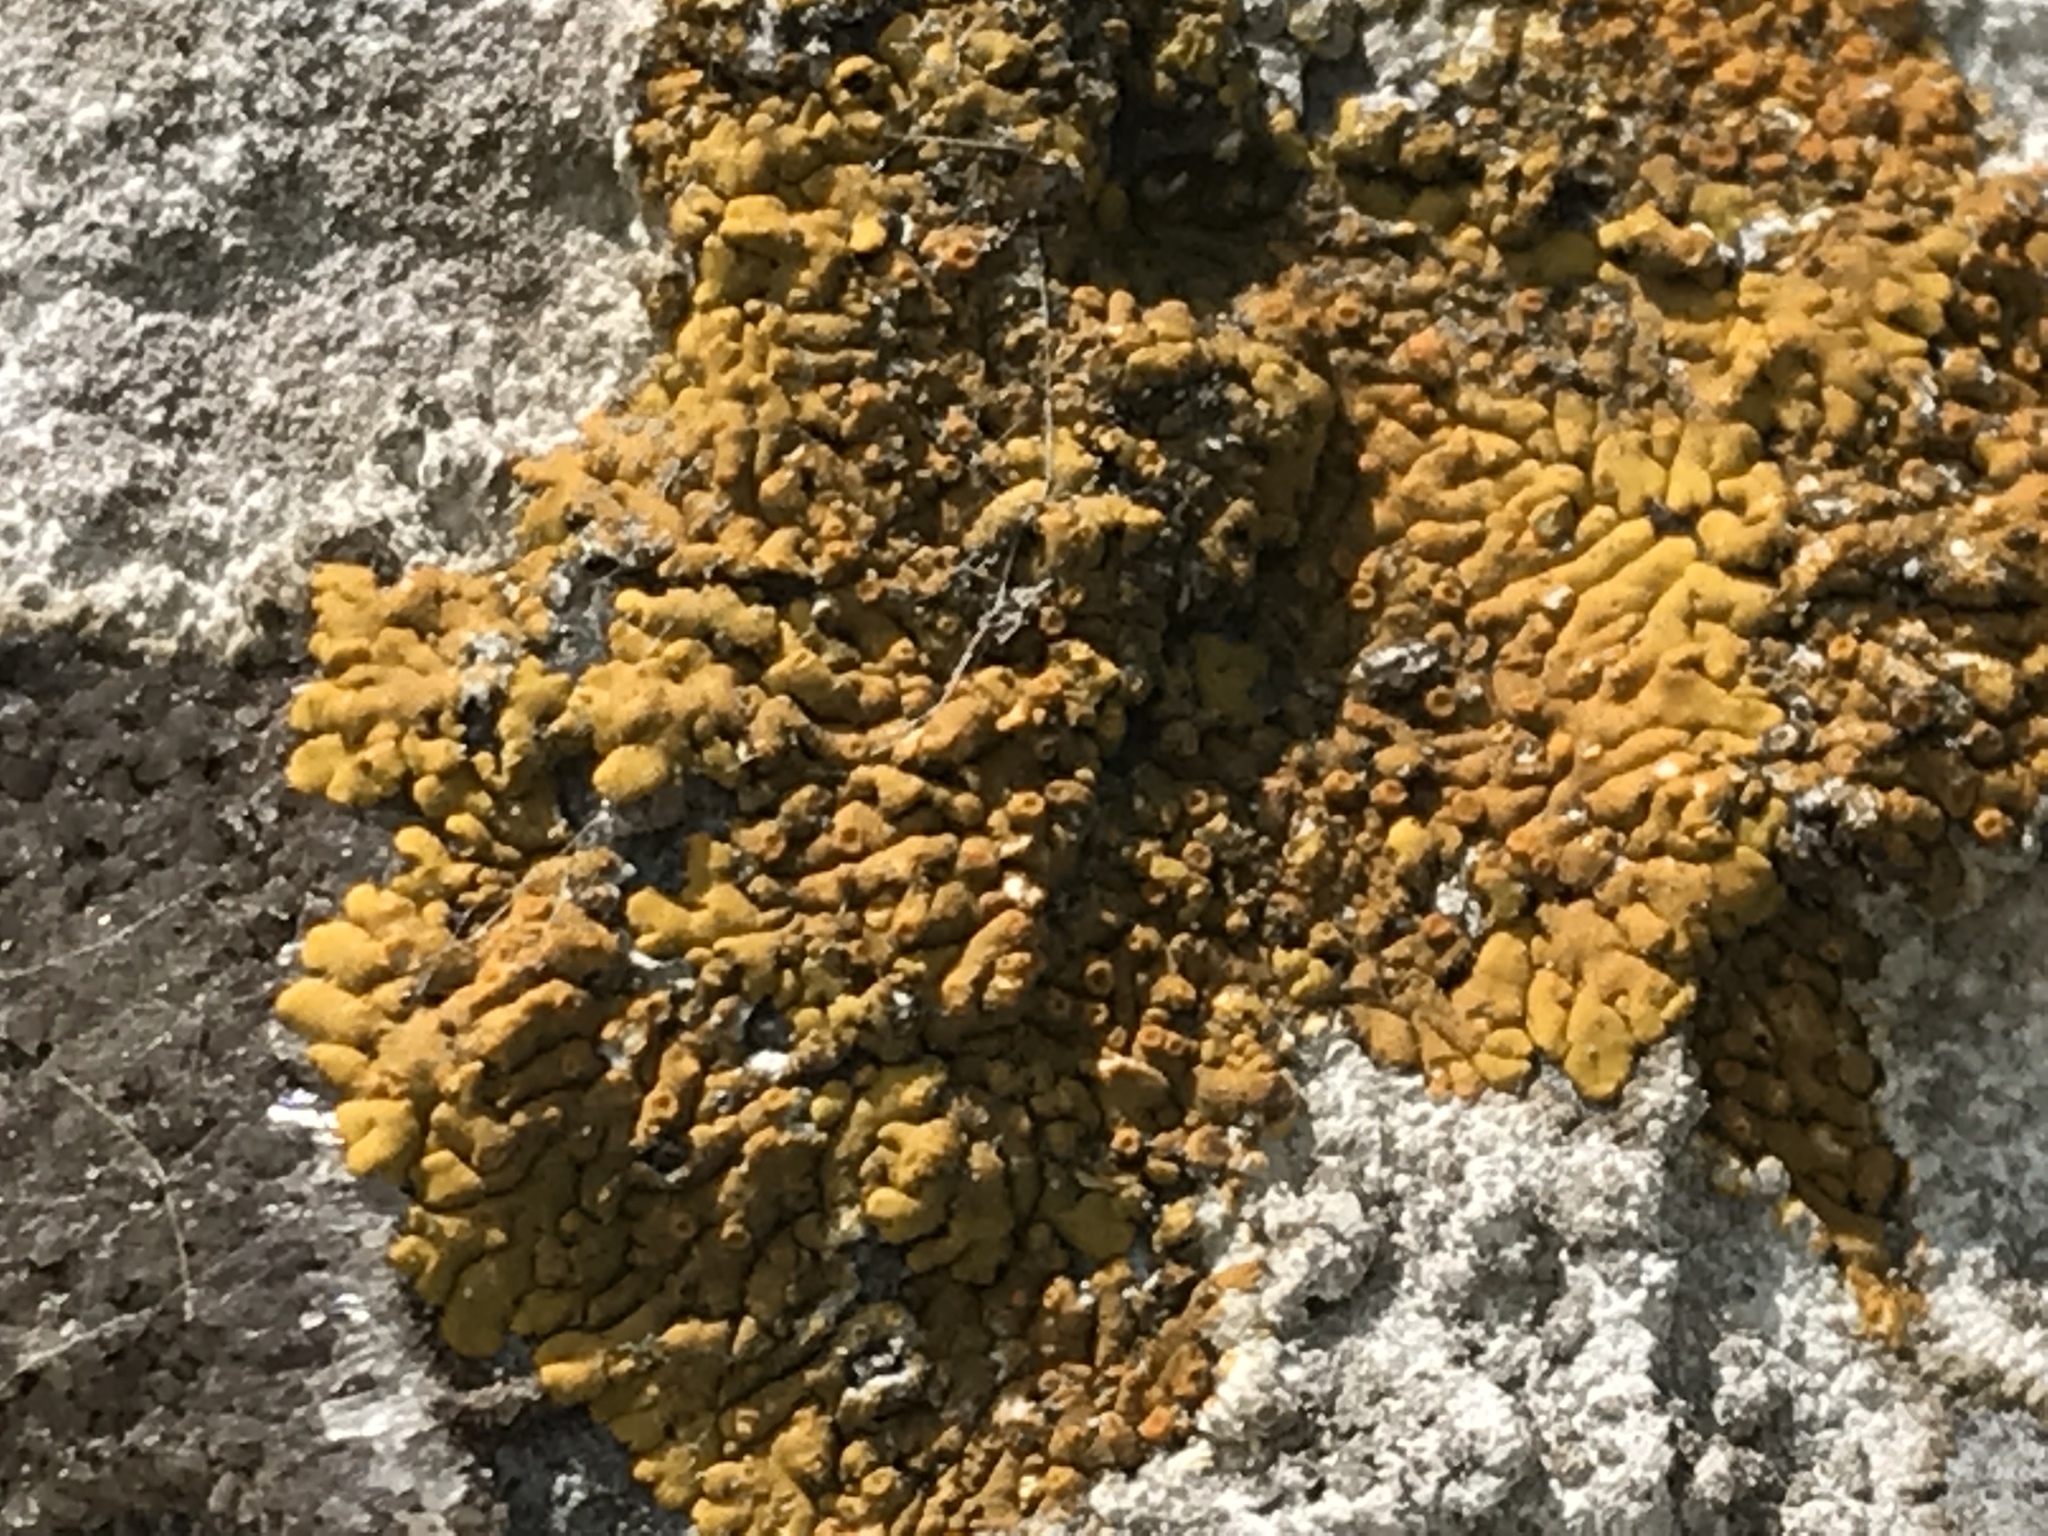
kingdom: Fungi
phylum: Ascomycota
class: Lecanoromycetes
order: Teloschistales
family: Teloschistaceae
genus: Calogaya
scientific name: Calogaya saxicola
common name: Rock jewel lichen
